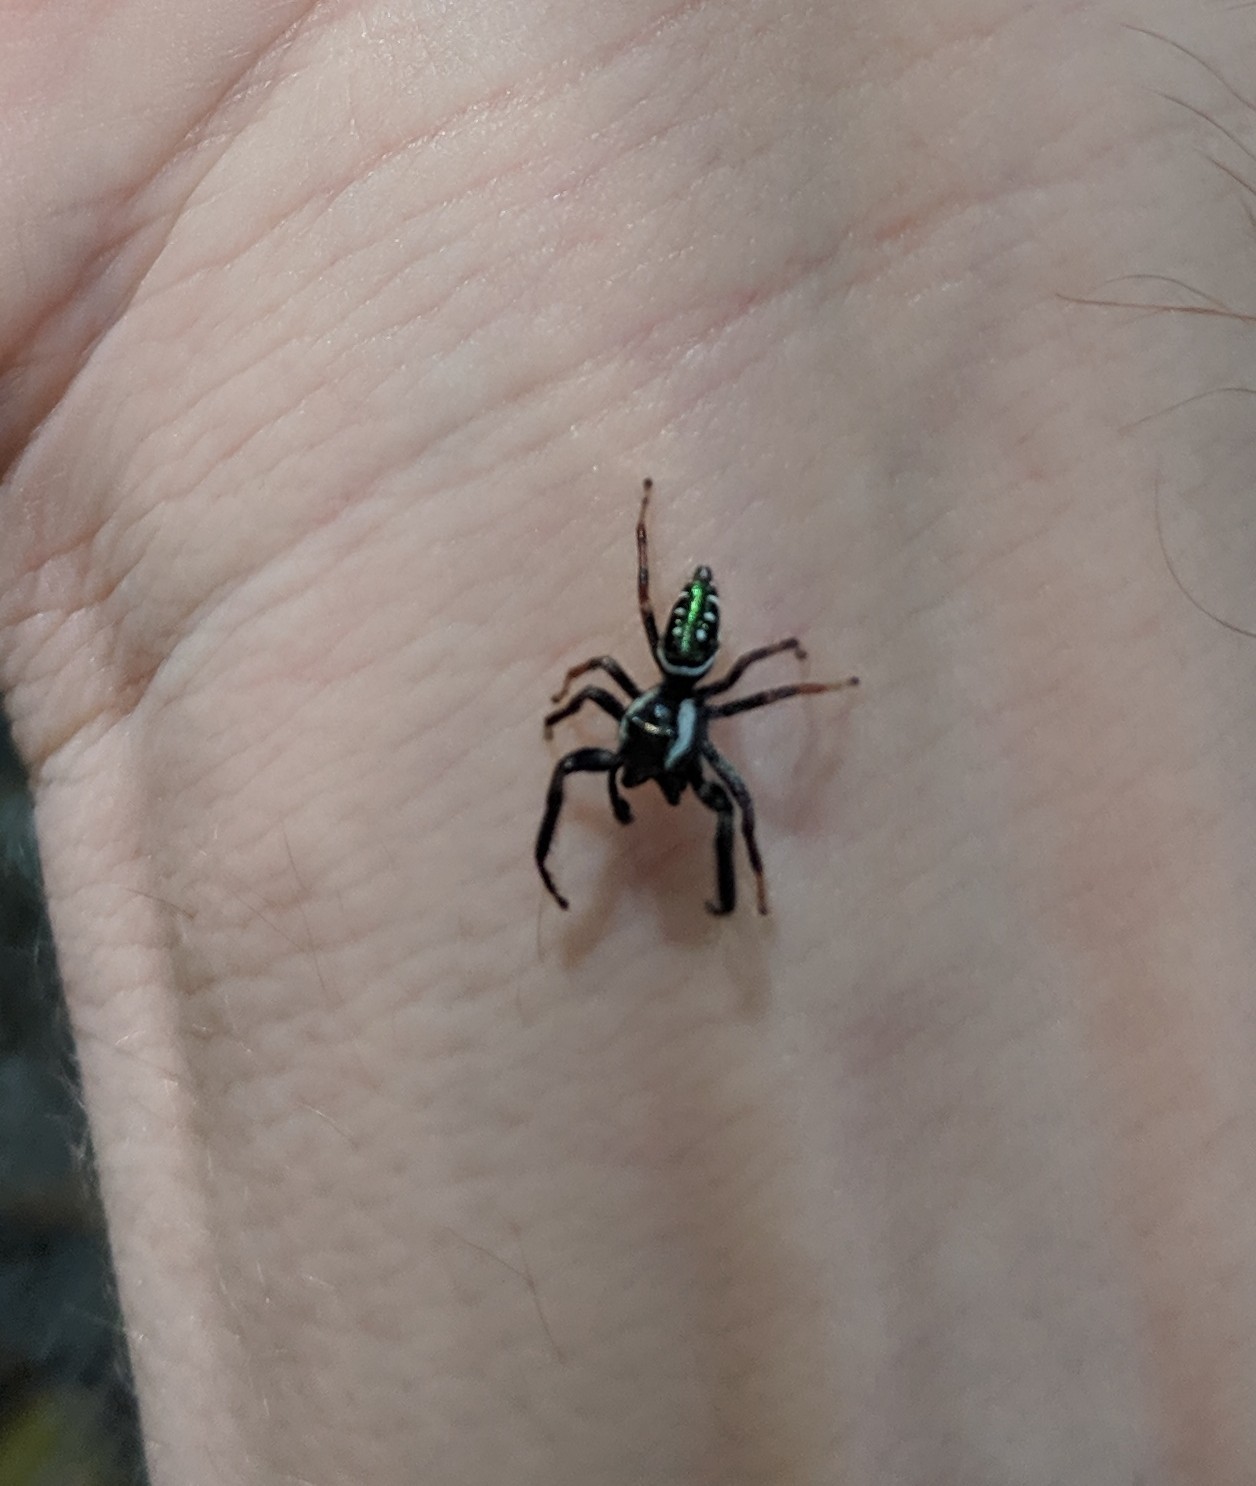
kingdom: Animalia
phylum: Arthropoda
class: Arachnida
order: Araneae
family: Salticidae
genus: Paraphidippus
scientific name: Paraphidippus aurantius
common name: Jumping spiders
